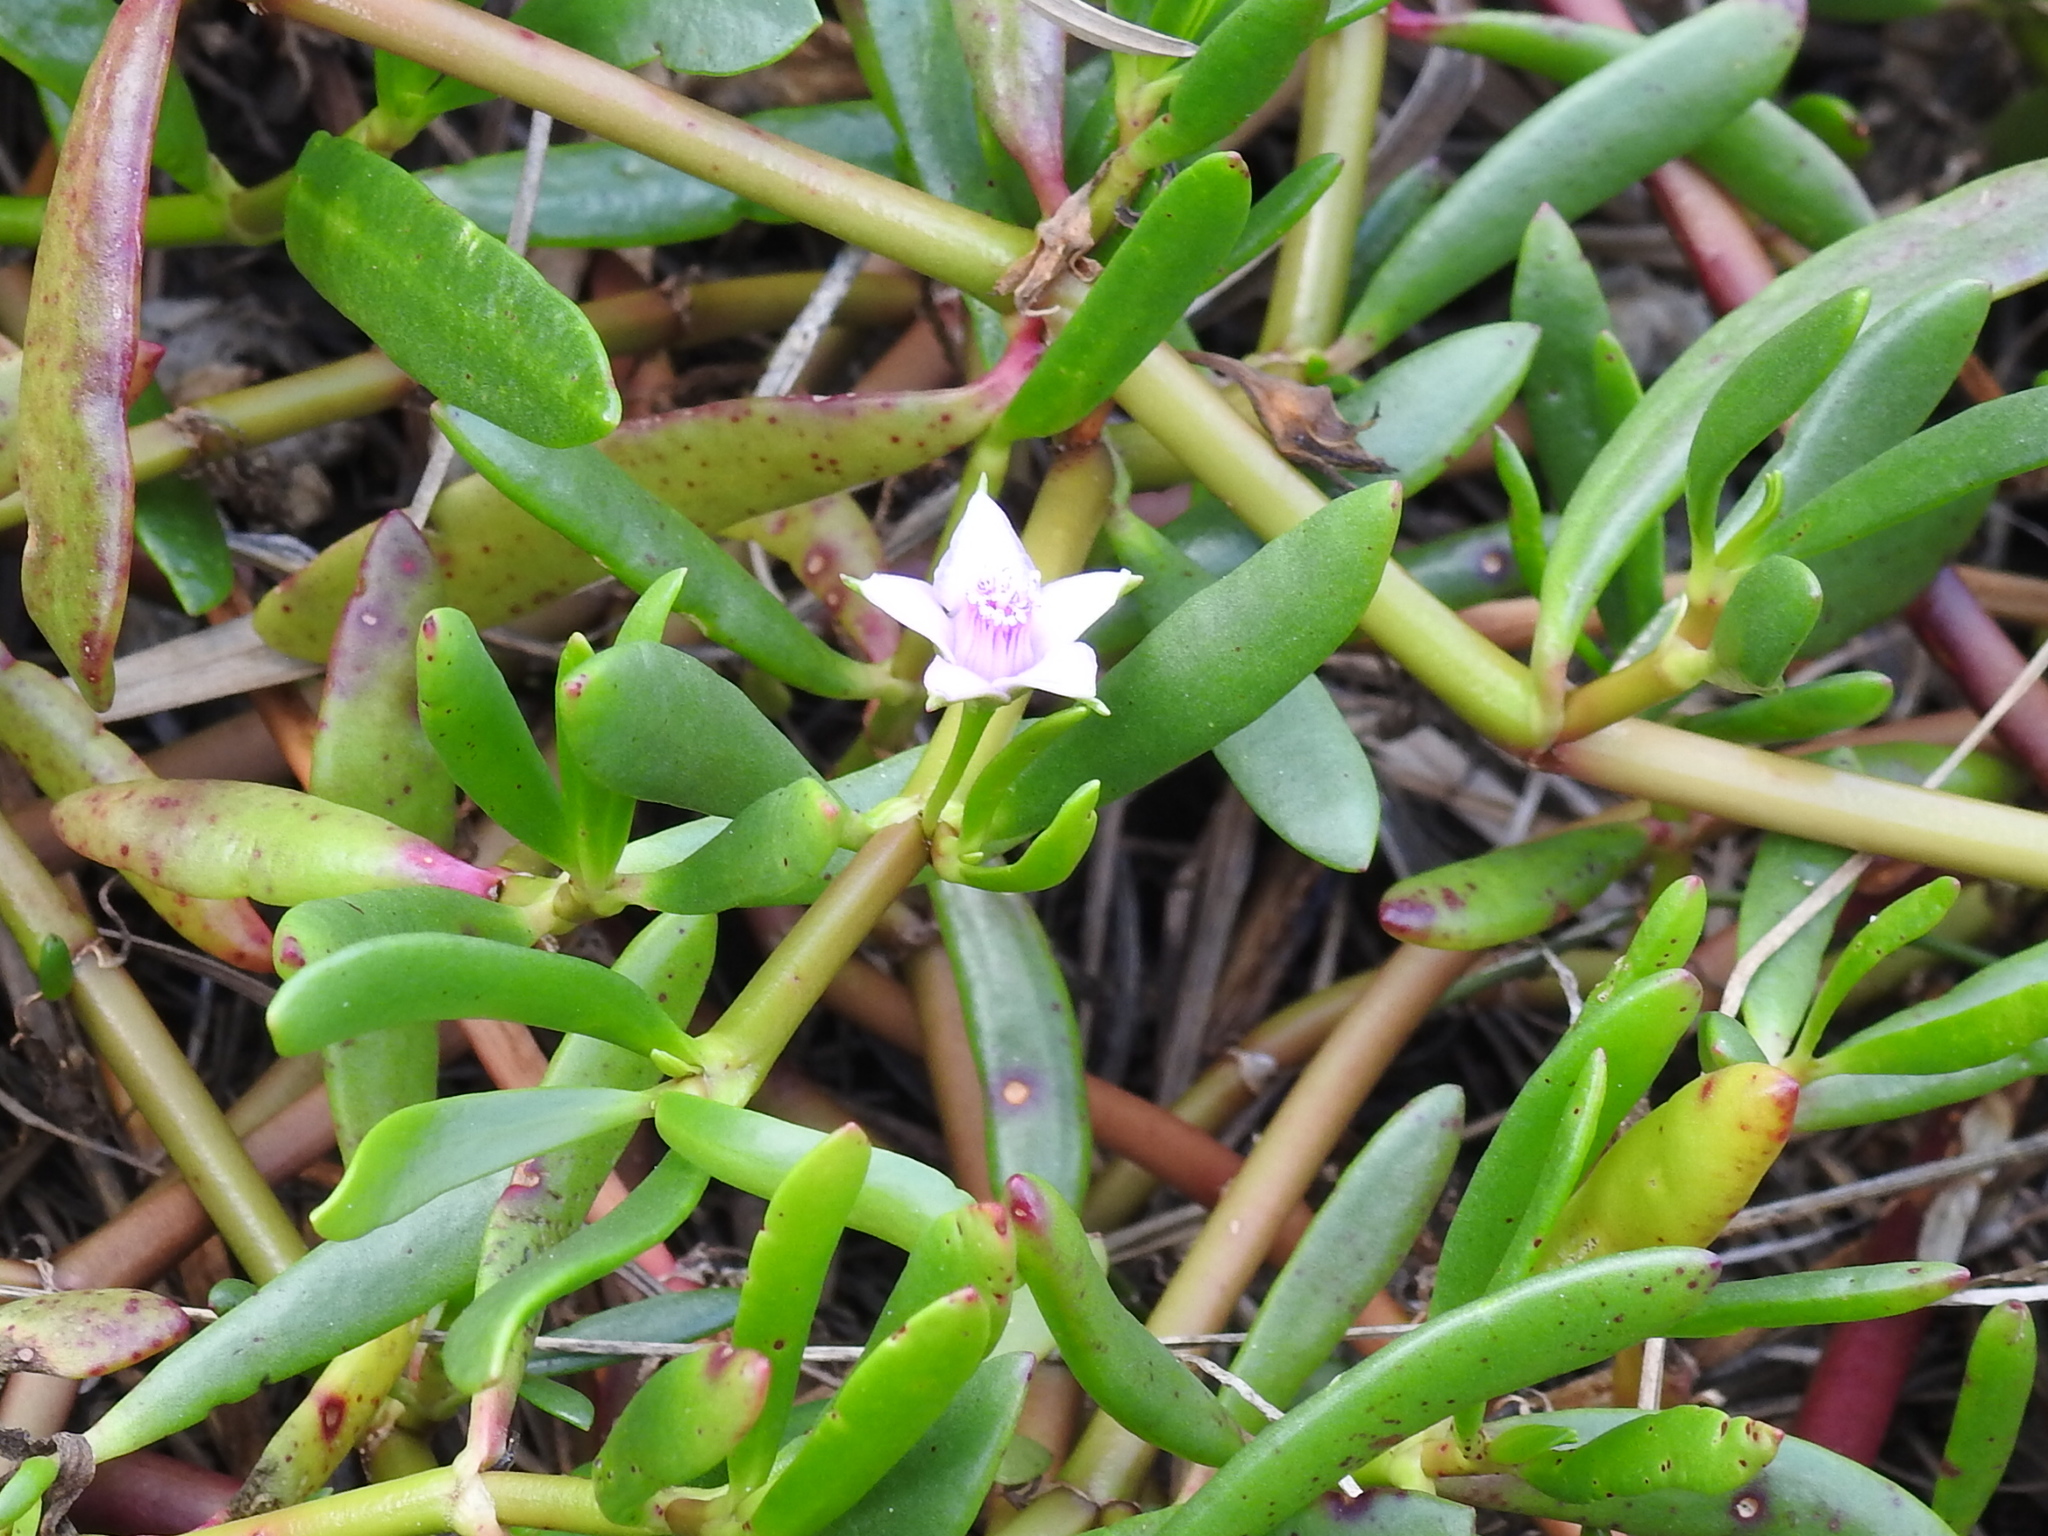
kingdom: Plantae
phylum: Tracheophyta
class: Magnoliopsida
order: Caryophyllales
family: Aizoaceae
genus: Sesuvium
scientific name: Sesuvium portulacastrum
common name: Sea-purslane
